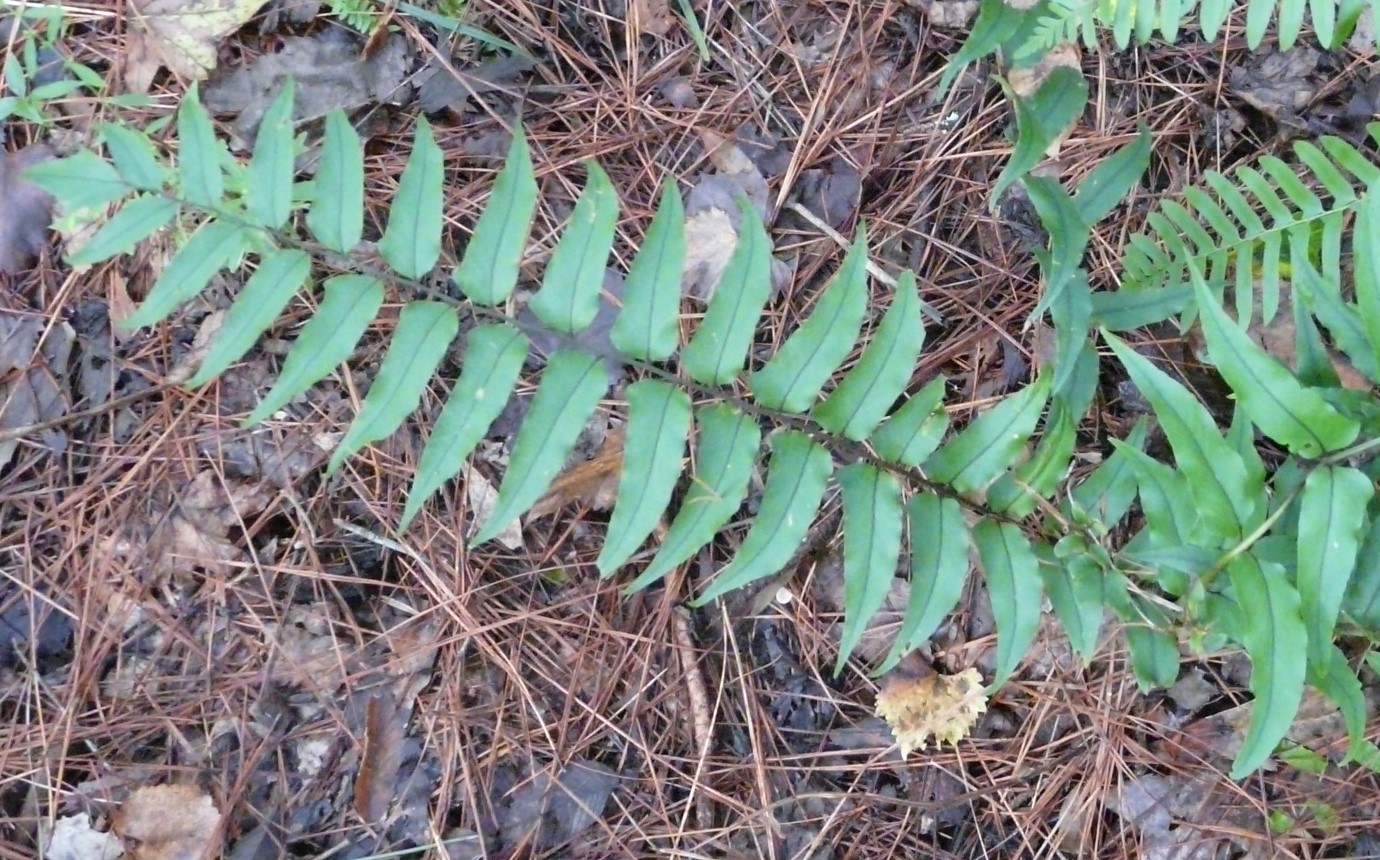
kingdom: Plantae
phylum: Tracheophyta
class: Polypodiopsida
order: Polypodiales
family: Dryopteridaceae
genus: Cyrtomium
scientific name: Cyrtomium fortunei
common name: Asian netvein hollyfern
